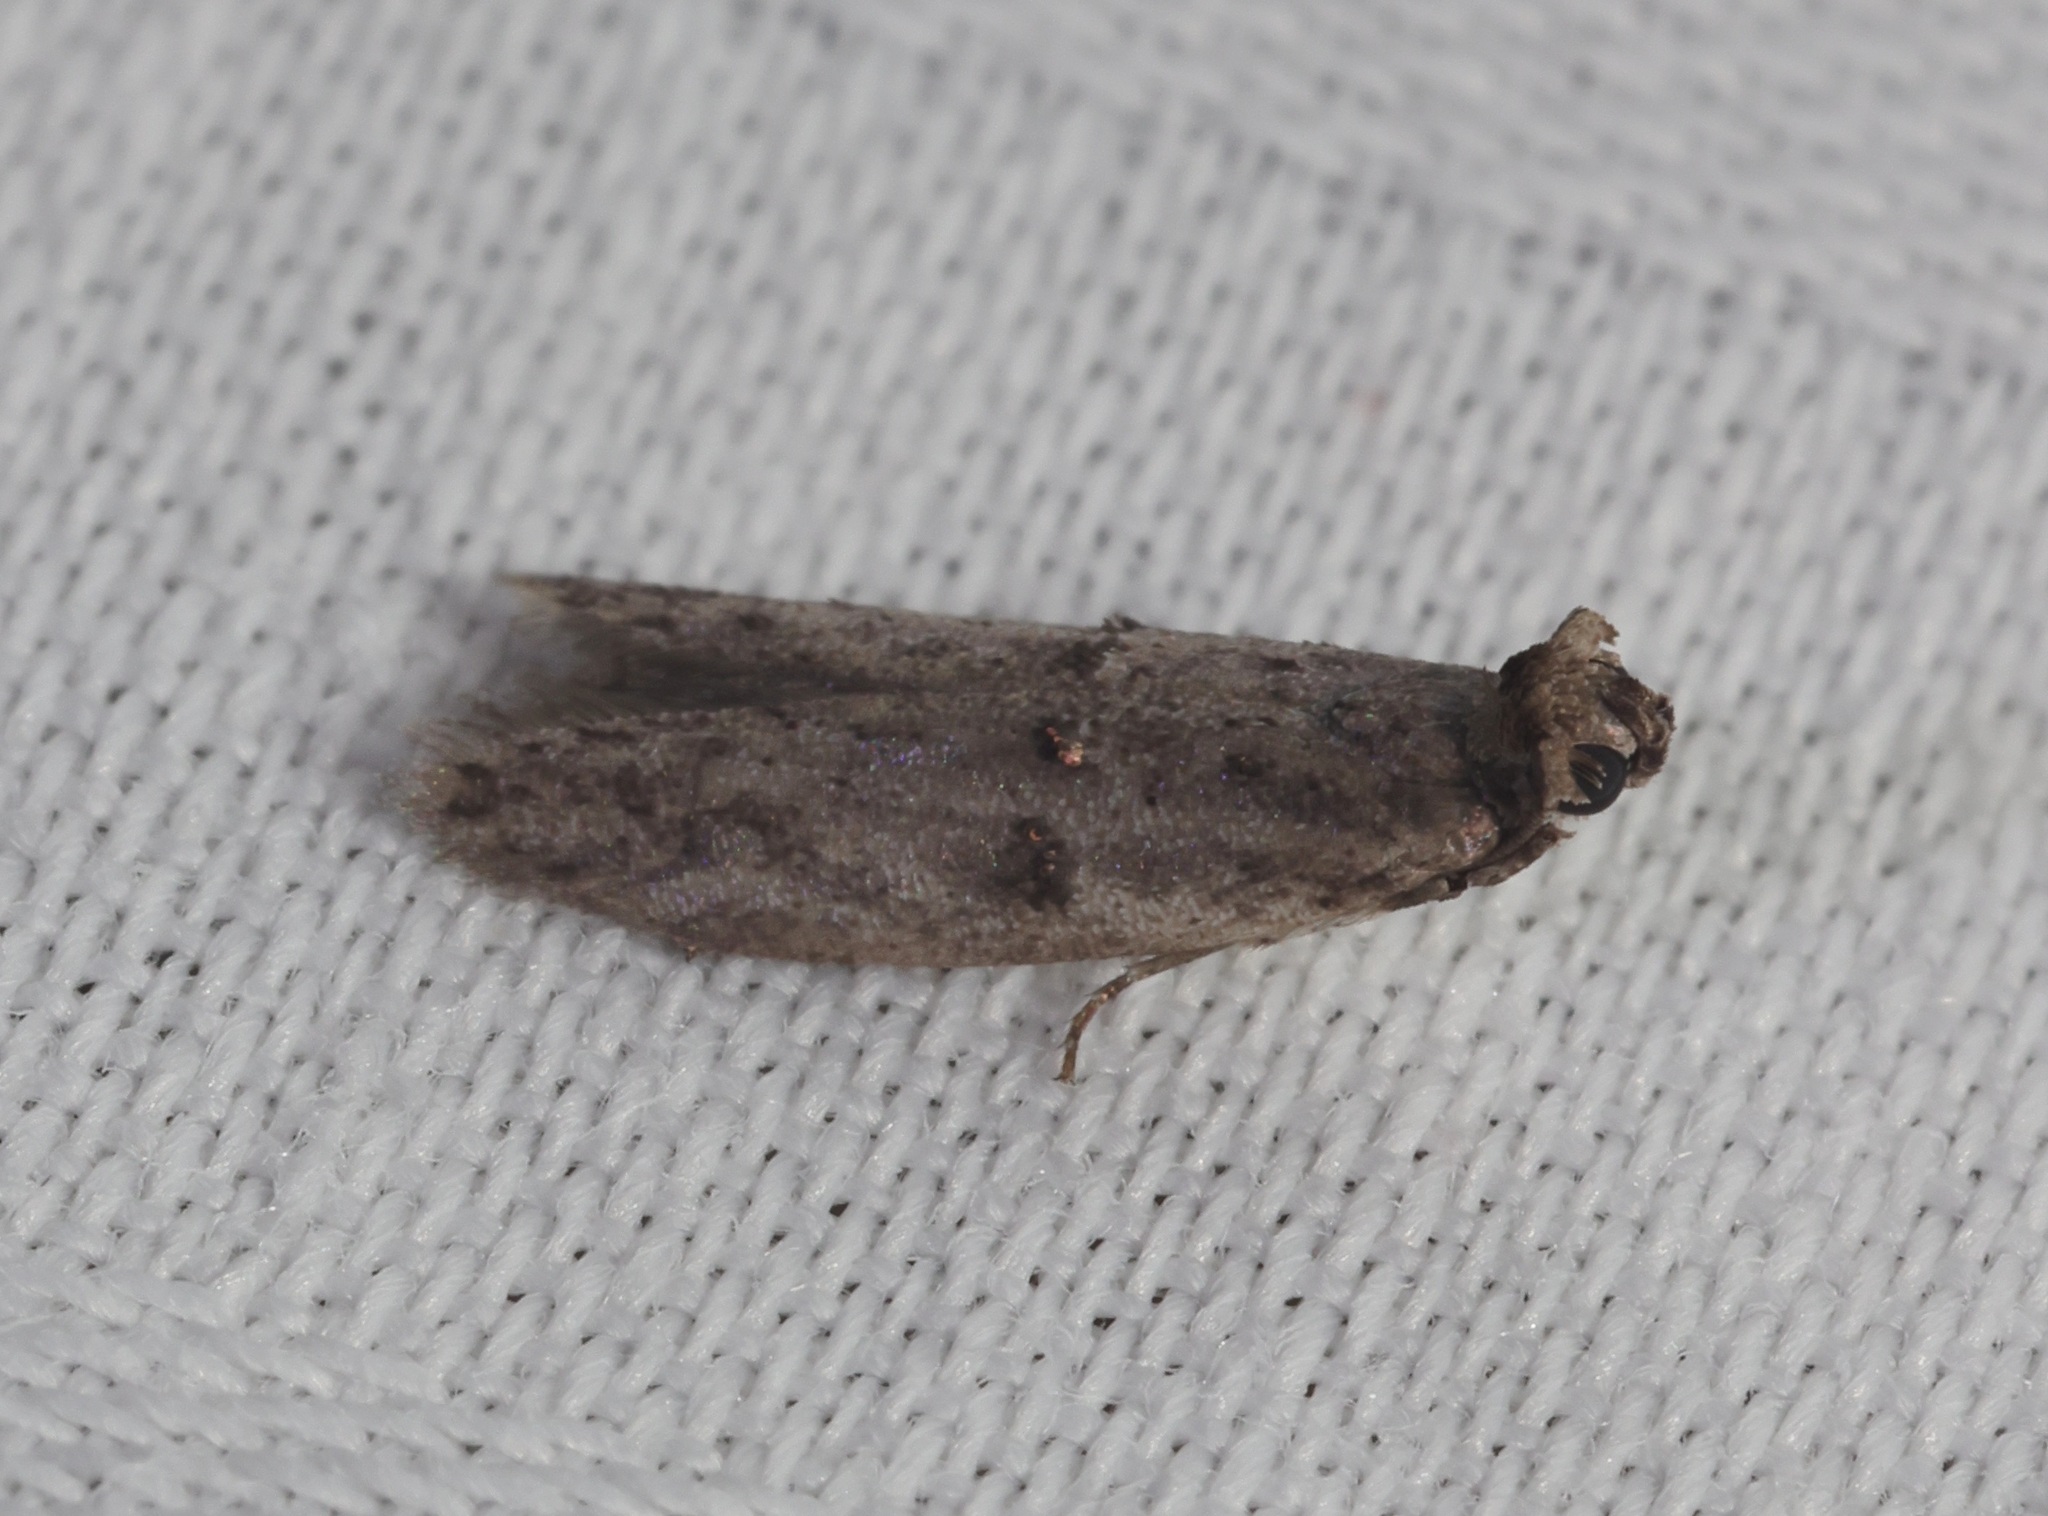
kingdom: Animalia
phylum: Arthropoda
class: Insecta
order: Lepidoptera
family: Pyralidae
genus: Copamyntis
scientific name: Copamyntis leptocosma
